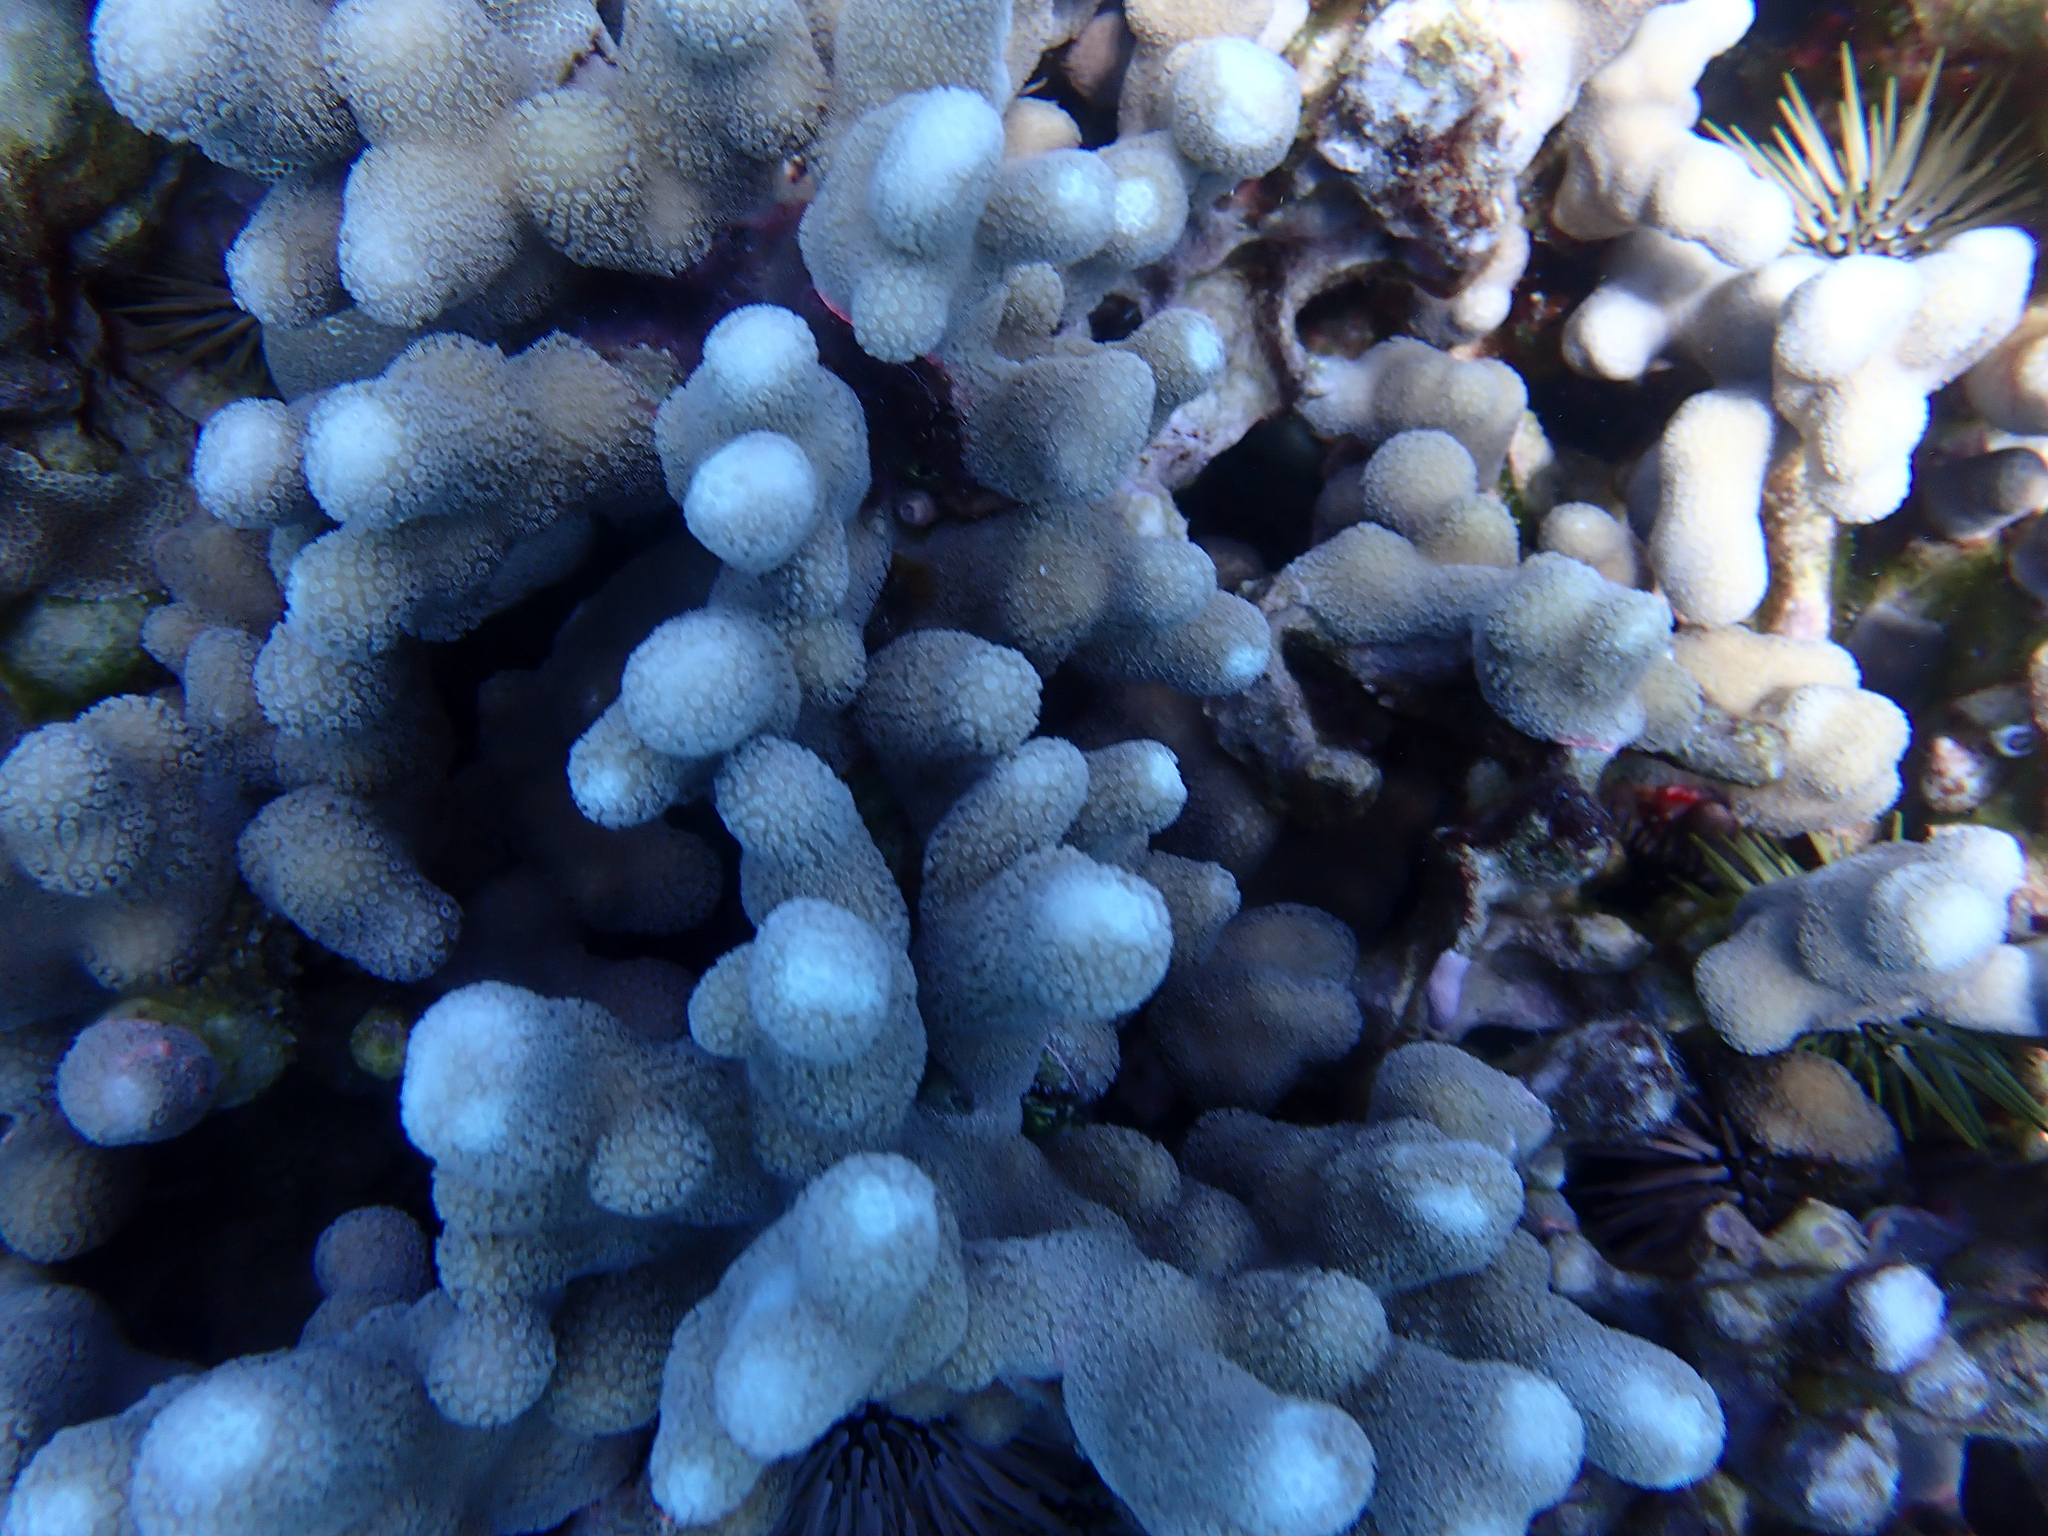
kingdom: Animalia
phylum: Cnidaria
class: Anthozoa
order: Scleractinia
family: Poritidae
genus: Porites
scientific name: Porites compressa
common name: Hump coral
